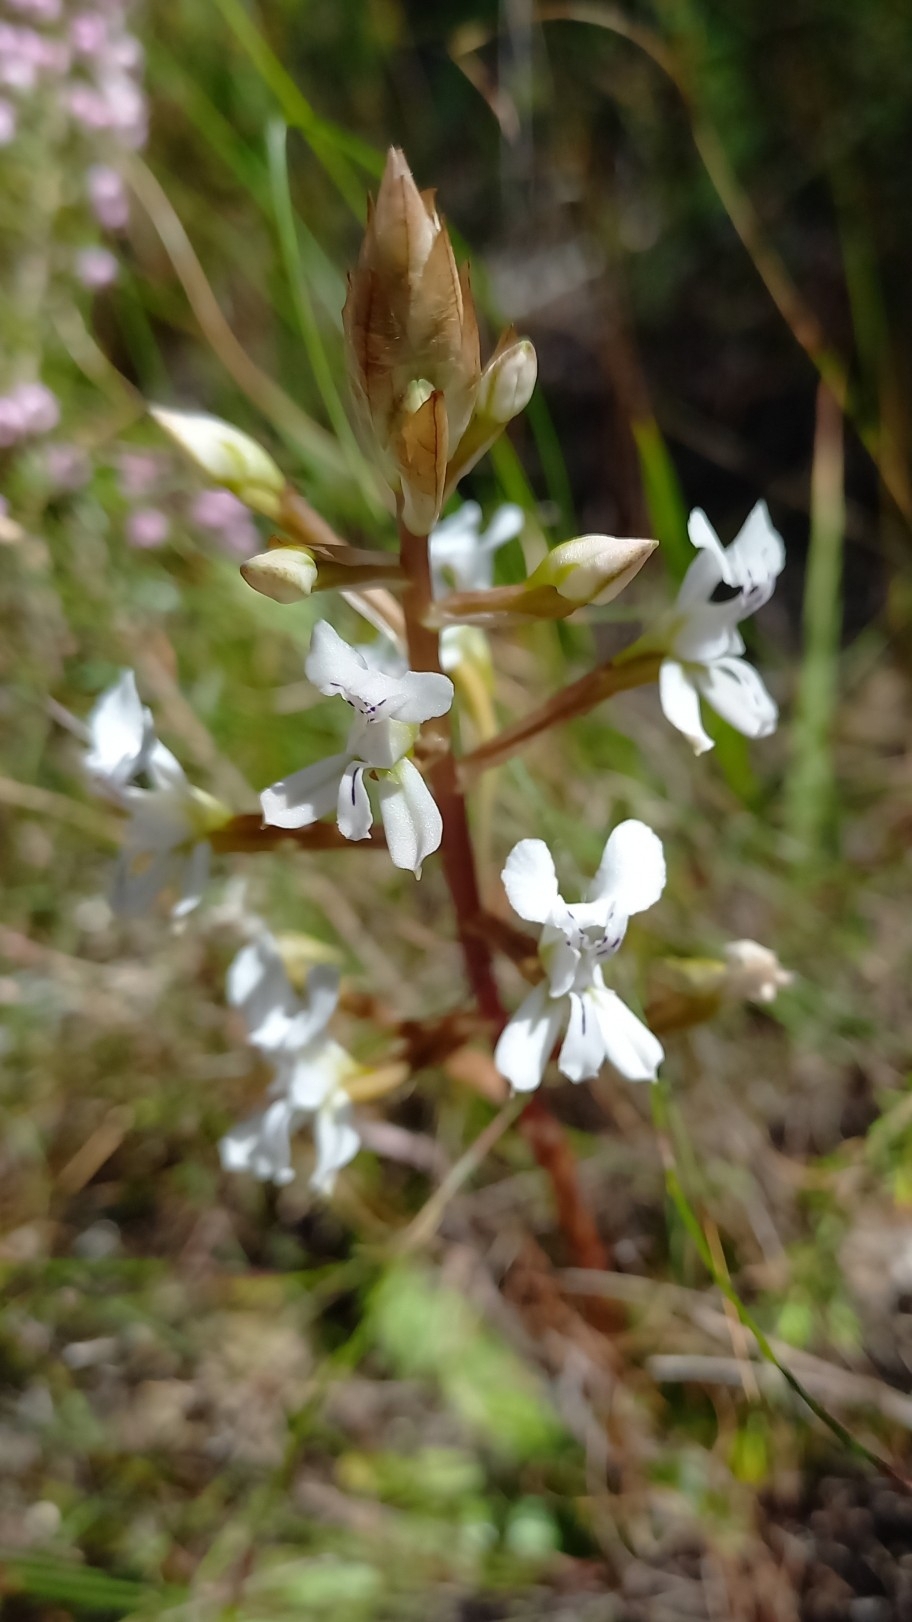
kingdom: Plantae
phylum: Tracheophyta
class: Liliopsida
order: Asparagales
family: Orchidaceae
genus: Disa
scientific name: Disa sagittalis
